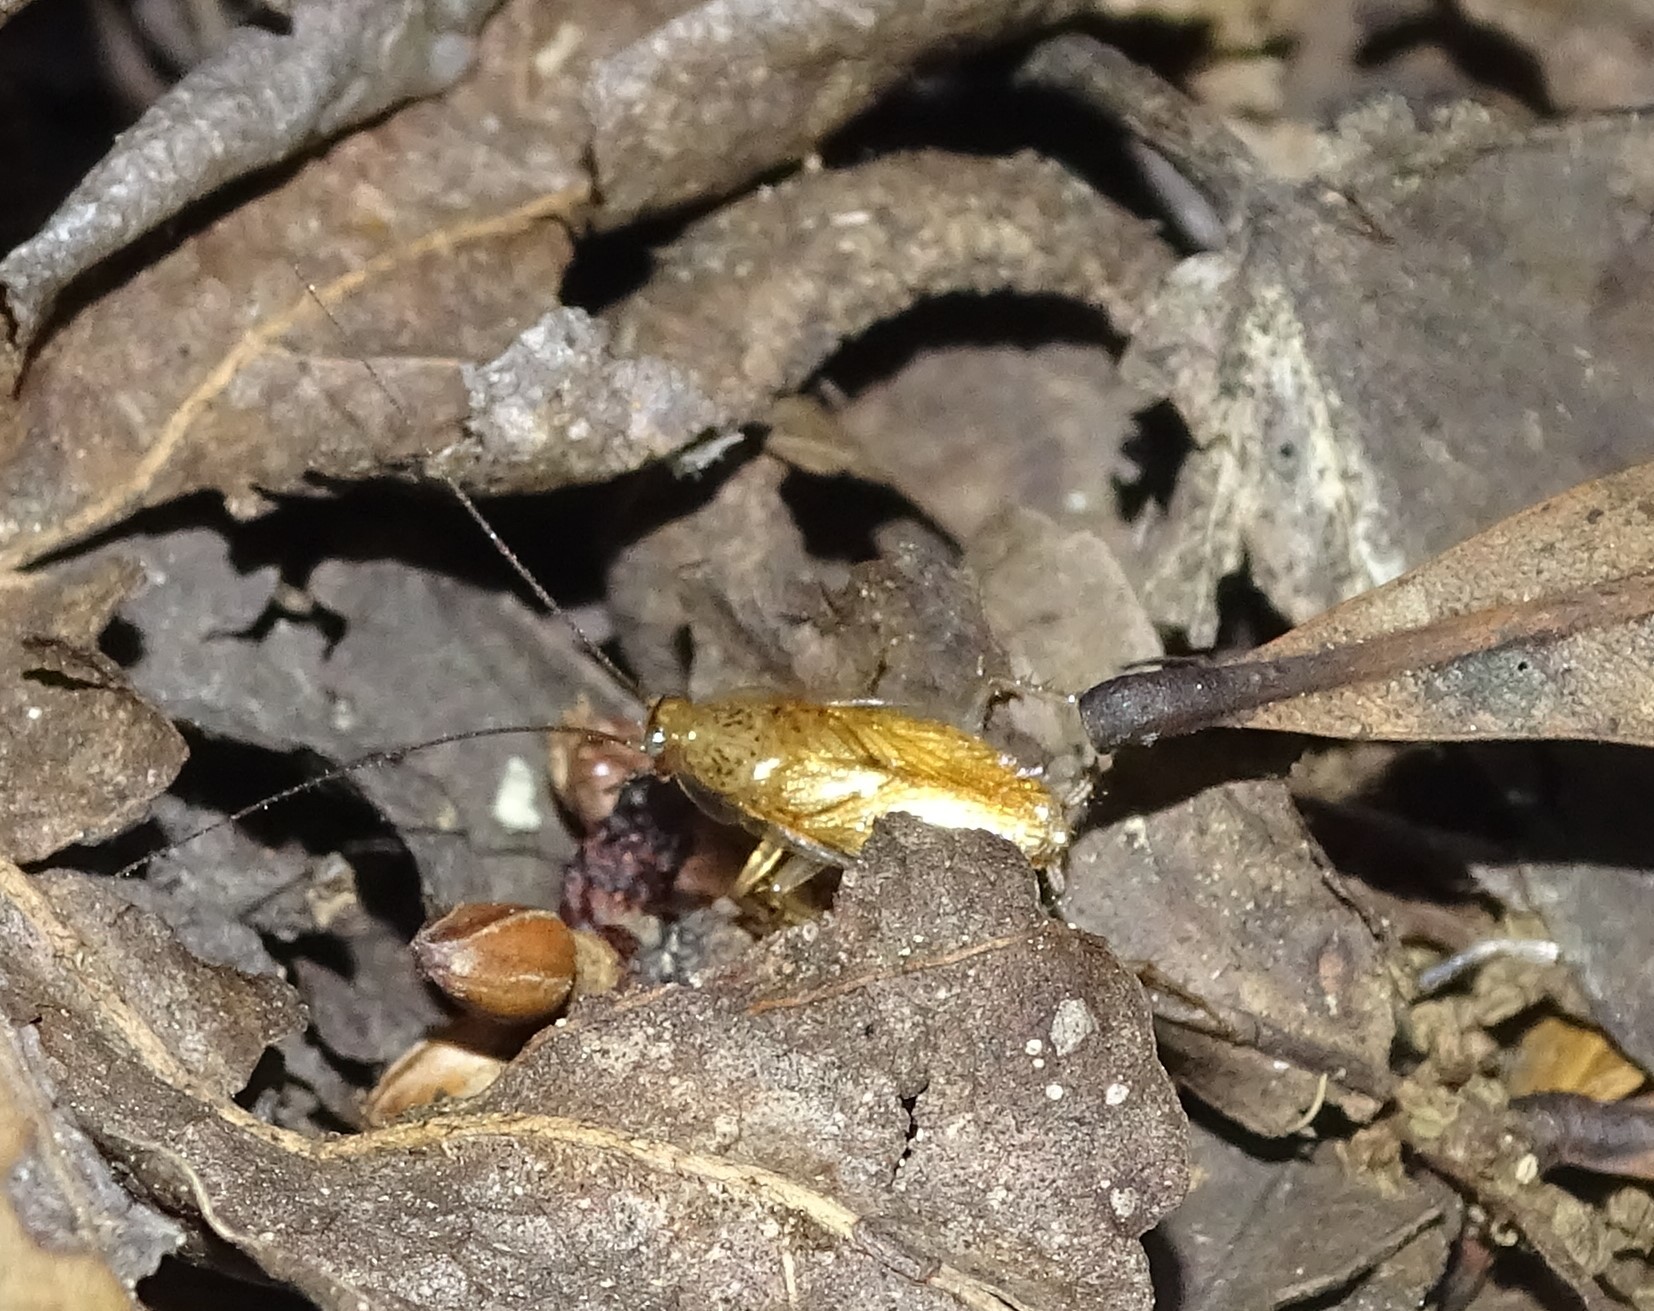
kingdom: Animalia
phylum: Arthropoda
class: Insecta
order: Blattodea
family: Ectobiidae
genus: Cariblatta
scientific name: Cariblatta lutea
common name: Small yellow cockroach
